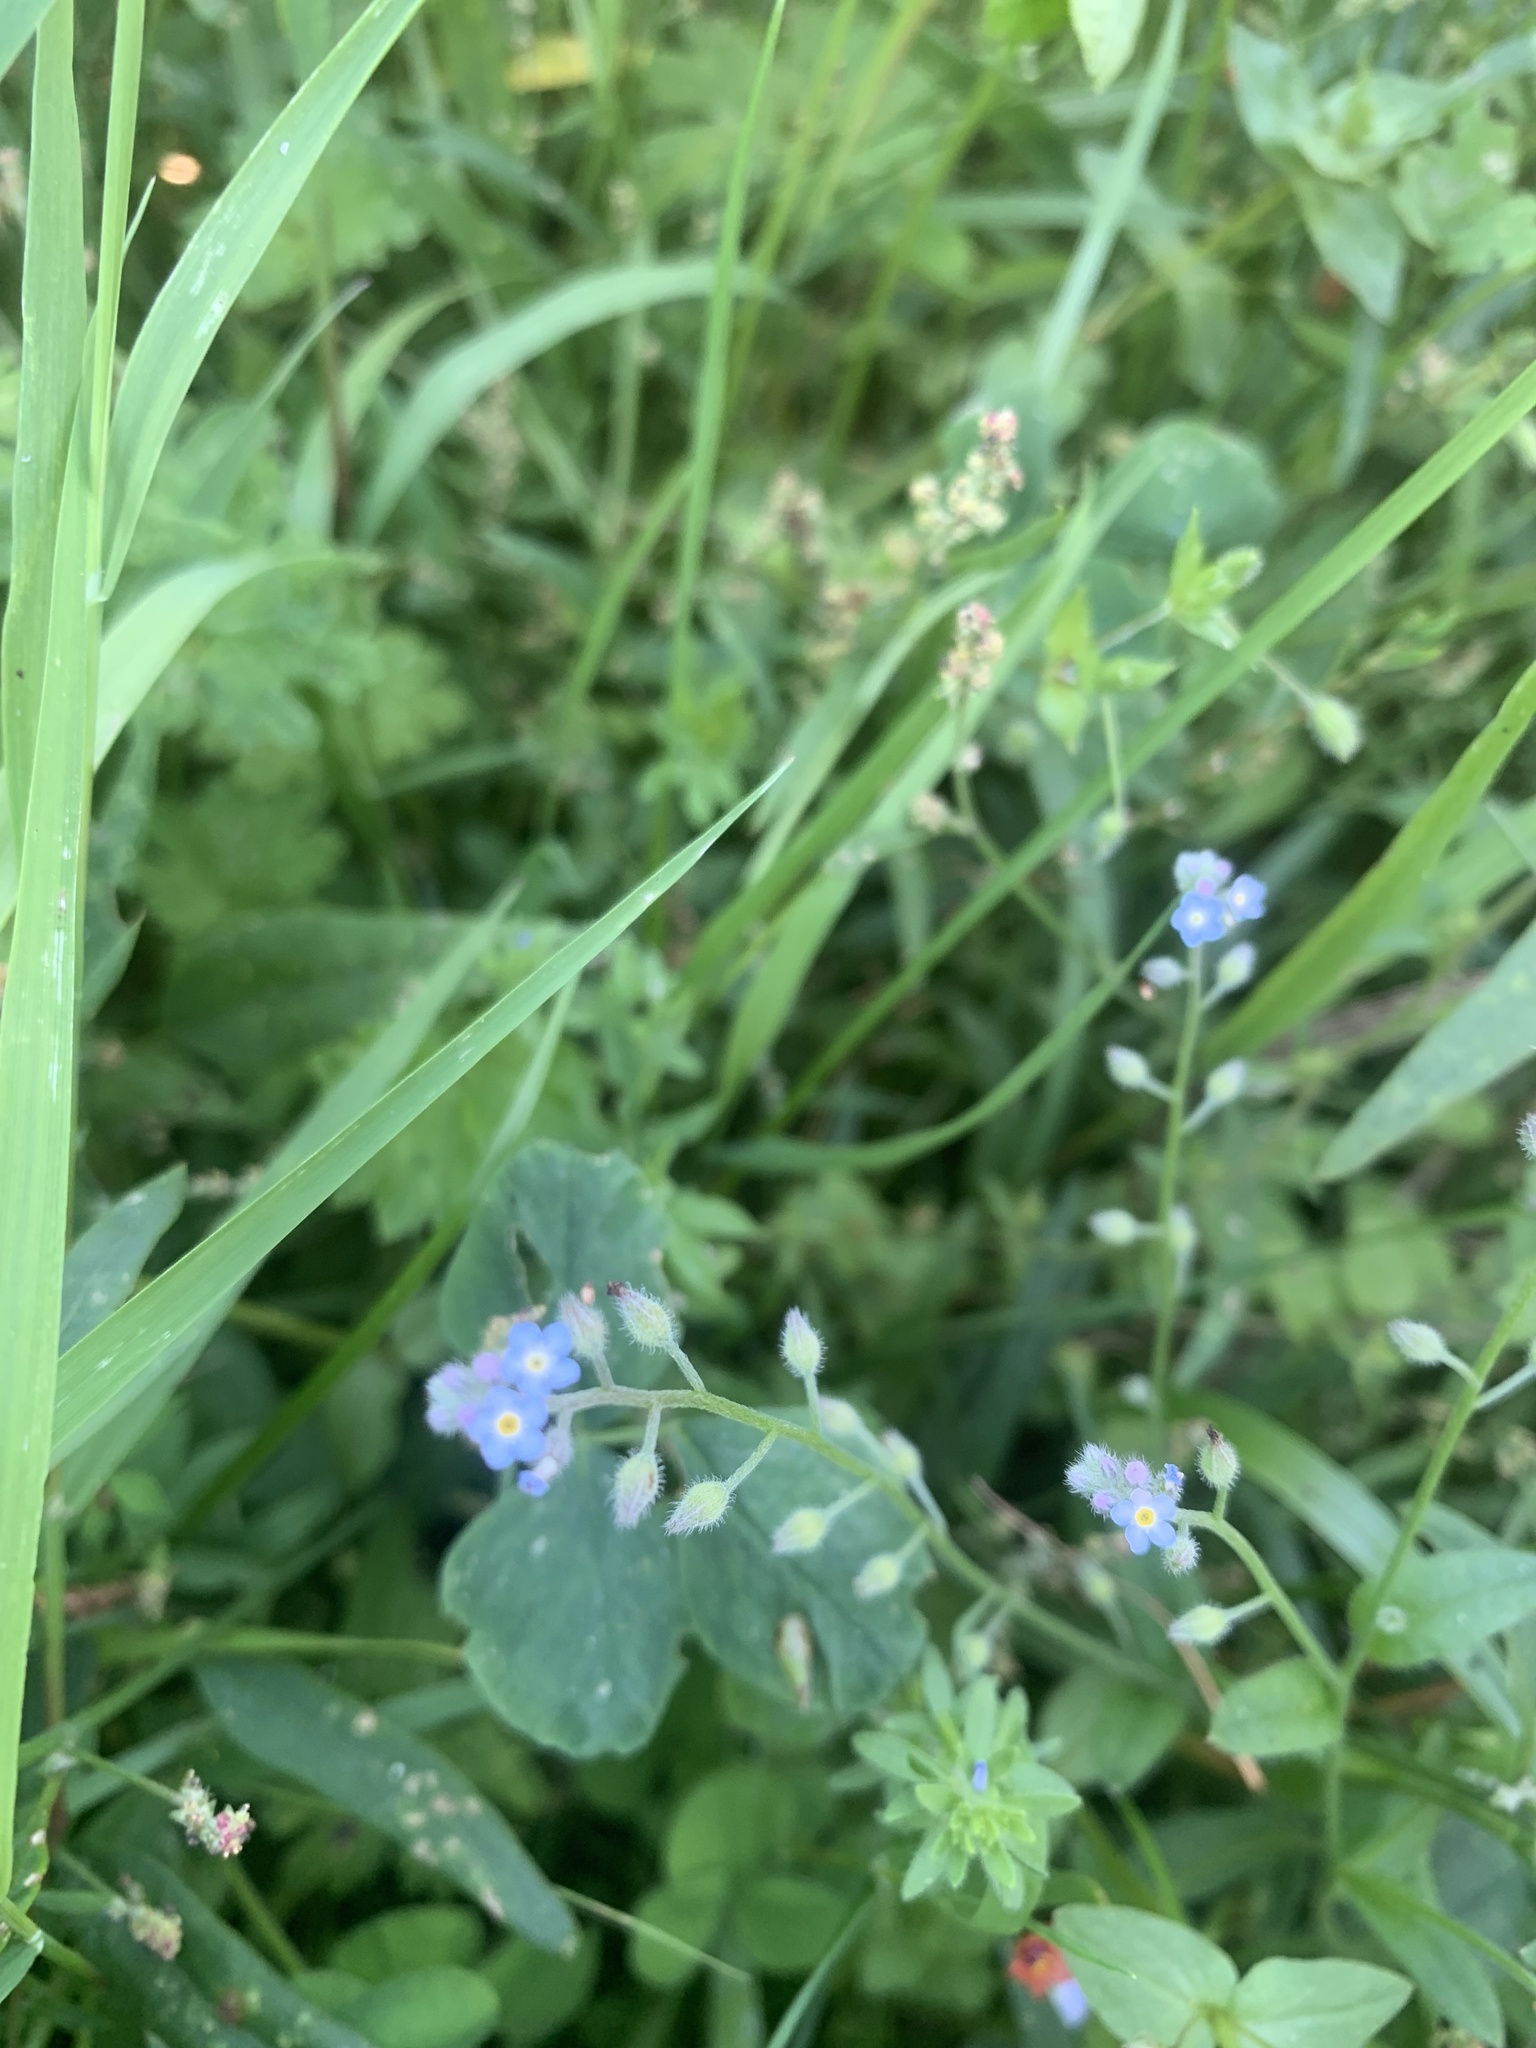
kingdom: Plantae
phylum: Tracheophyta
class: Magnoliopsida
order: Boraginales
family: Boraginaceae
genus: Myosotis
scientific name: Myosotis arvensis
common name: Field forget-me-not
